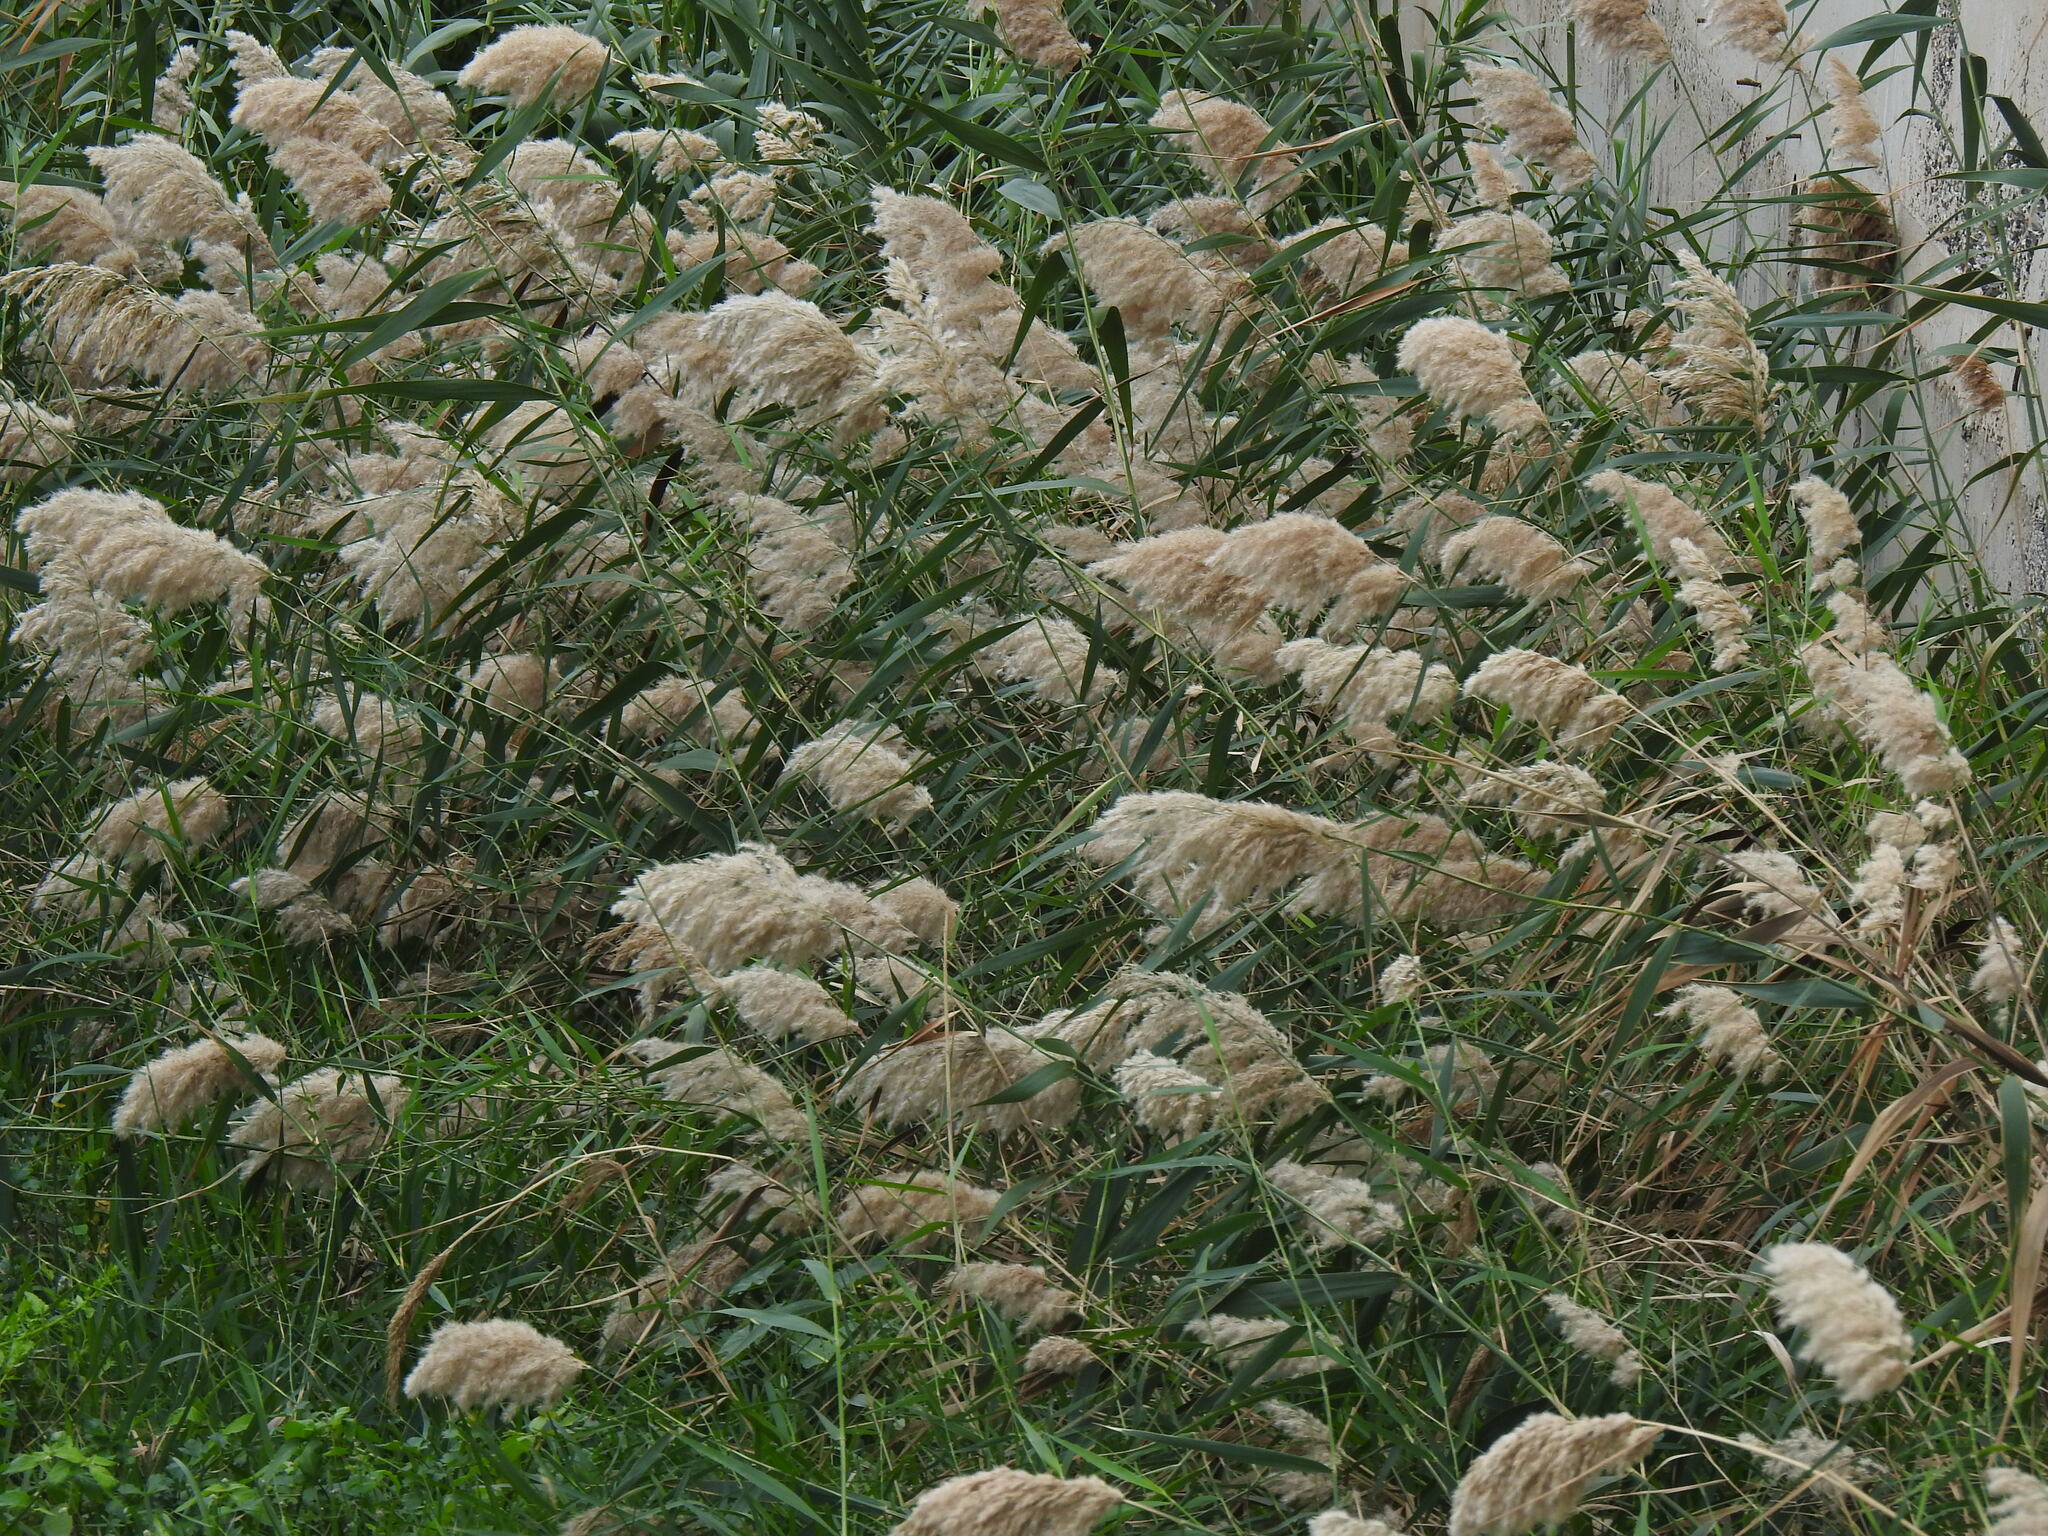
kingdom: Plantae
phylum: Tracheophyta
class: Liliopsida
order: Poales
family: Poaceae
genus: Phragmites
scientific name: Phragmites australis
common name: Common reed
